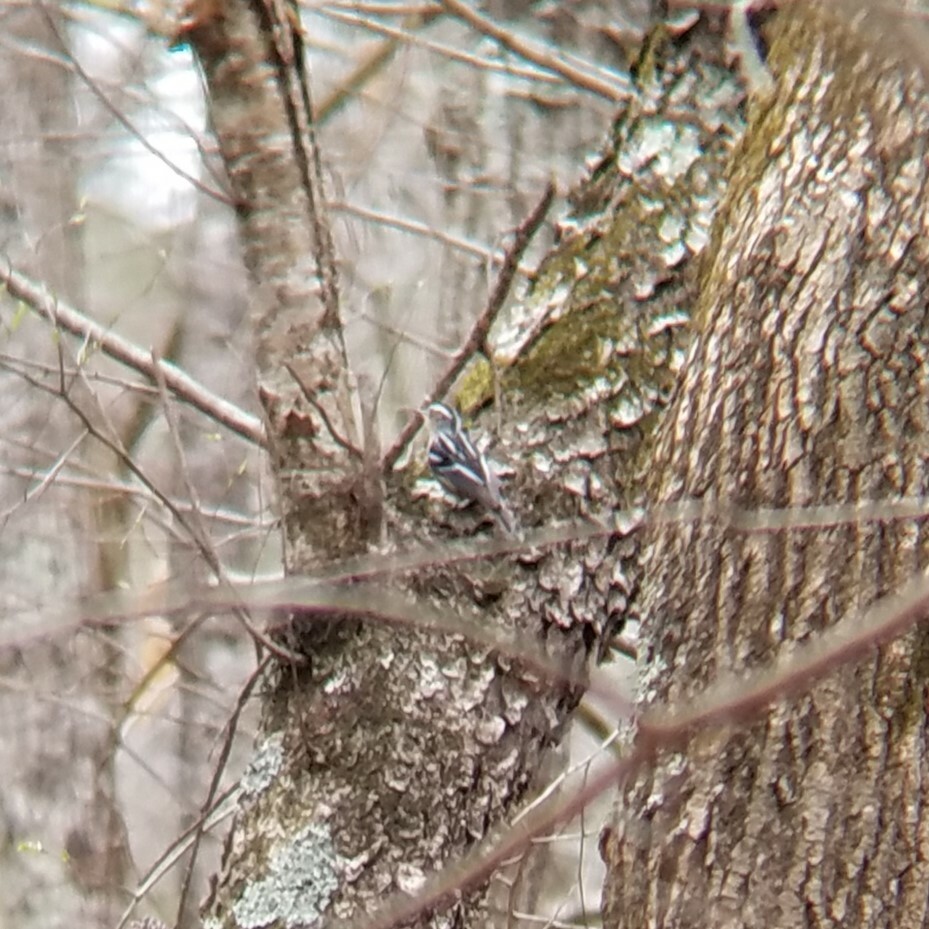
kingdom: Animalia
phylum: Chordata
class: Aves
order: Passeriformes
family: Parulidae
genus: Mniotilta
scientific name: Mniotilta varia
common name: Black-and-white warbler
